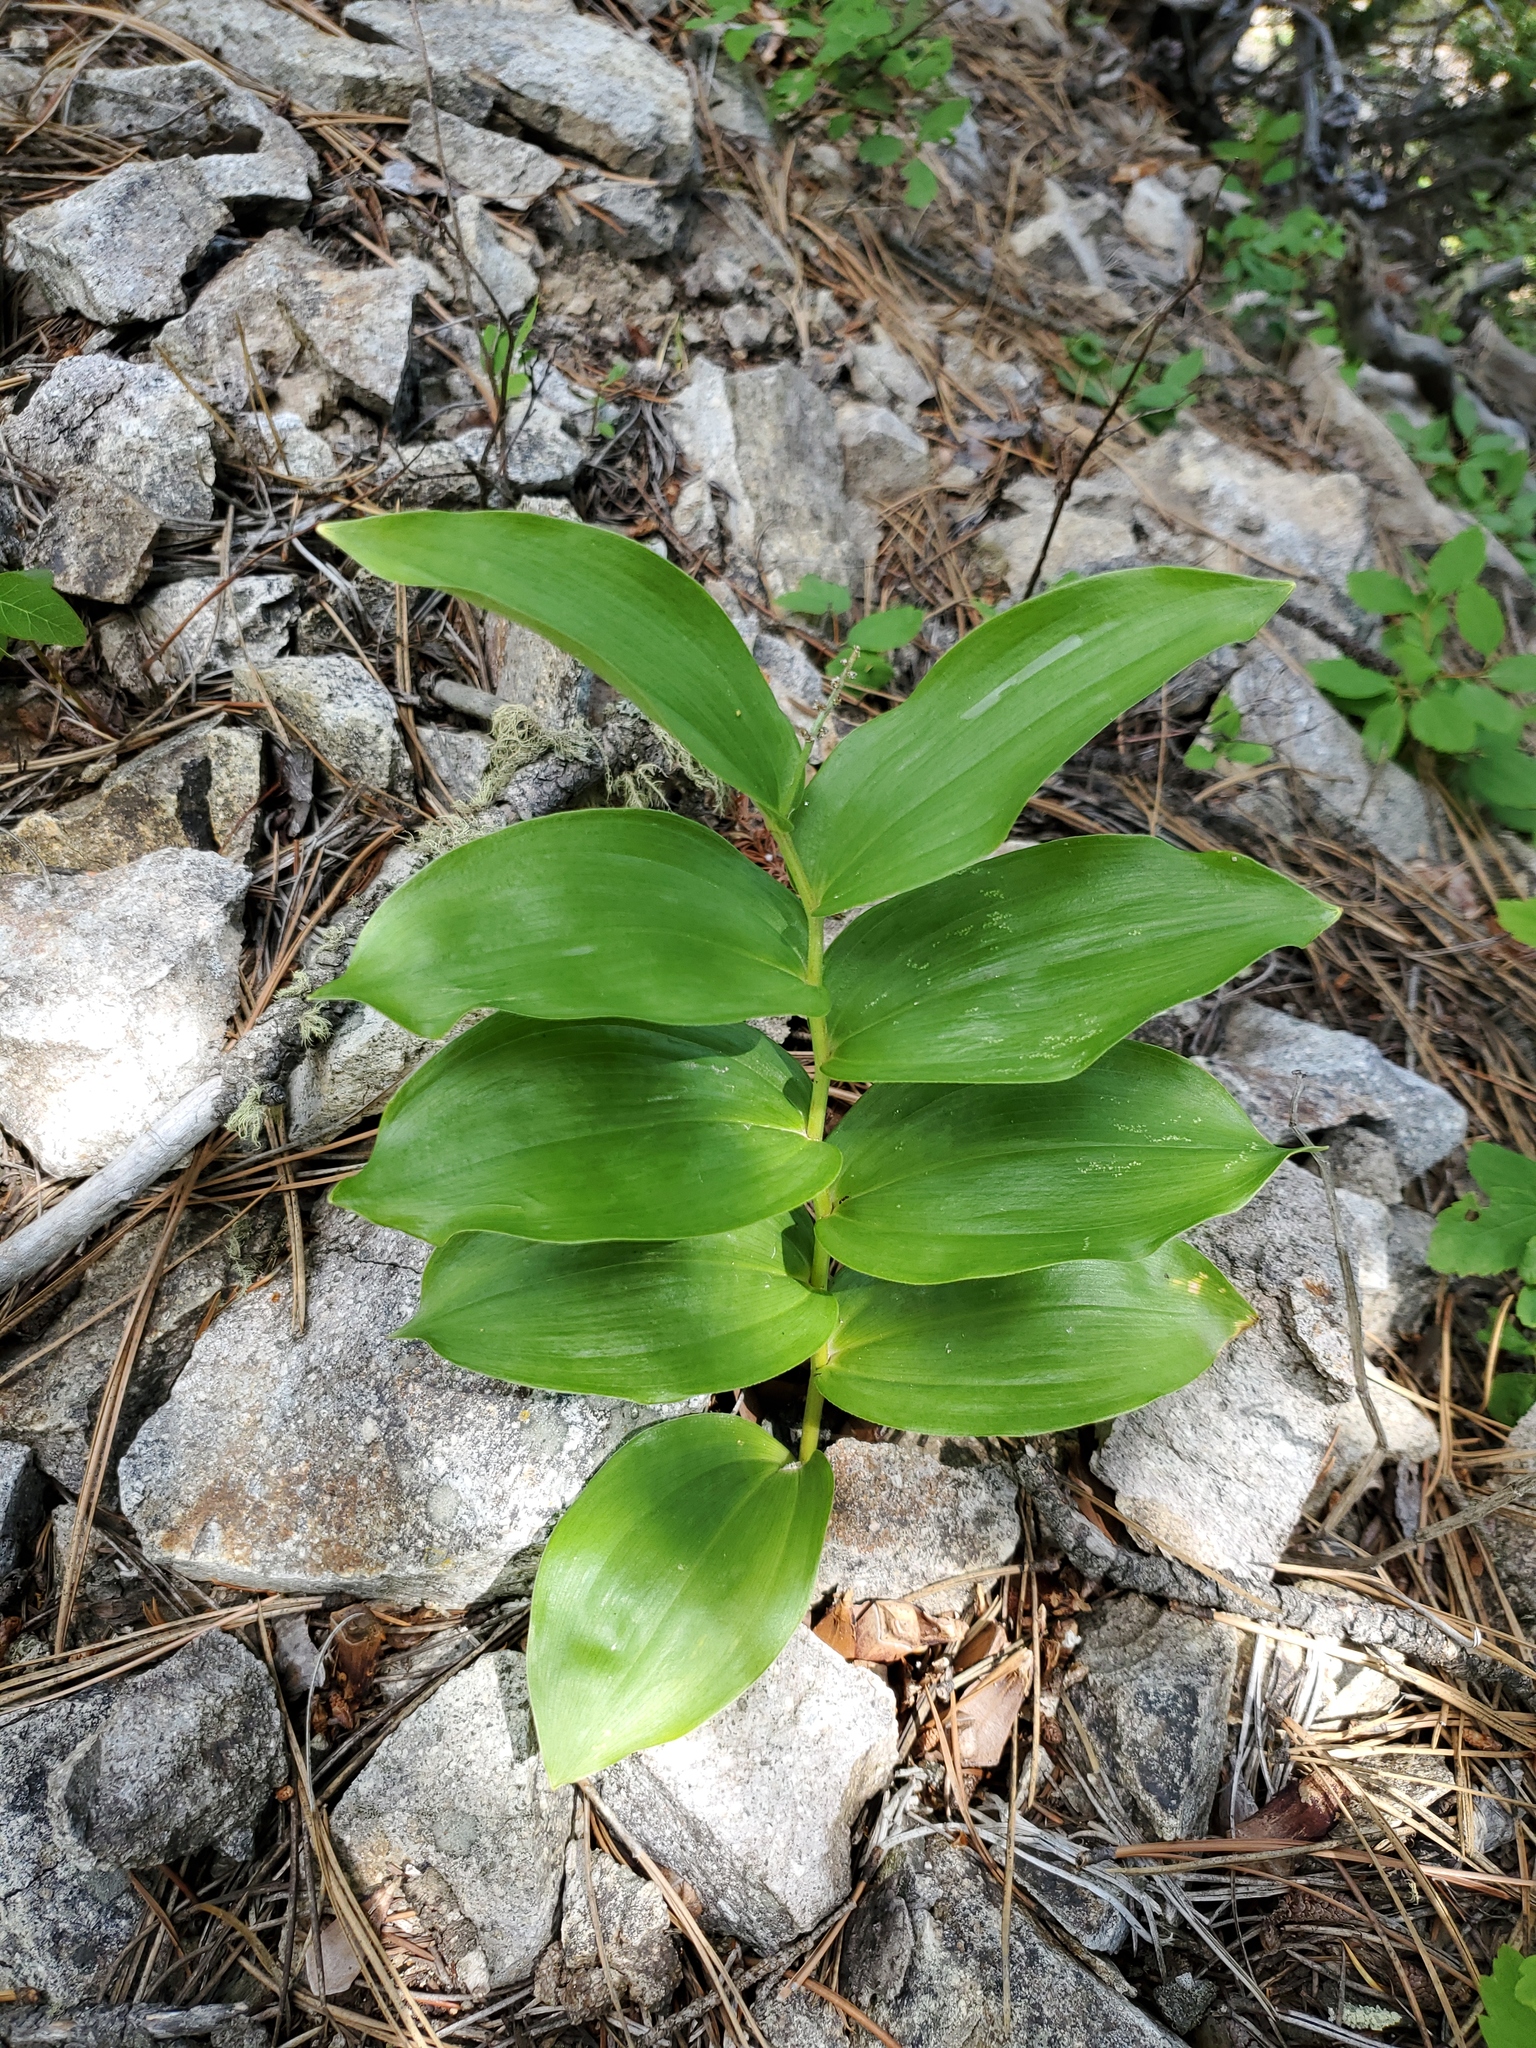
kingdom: Plantae
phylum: Tracheophyta
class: Liliopsida
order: Asparagales
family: Asparagaceae
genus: Maianthemum
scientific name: Maianthemum racemosum
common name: False spikenard
